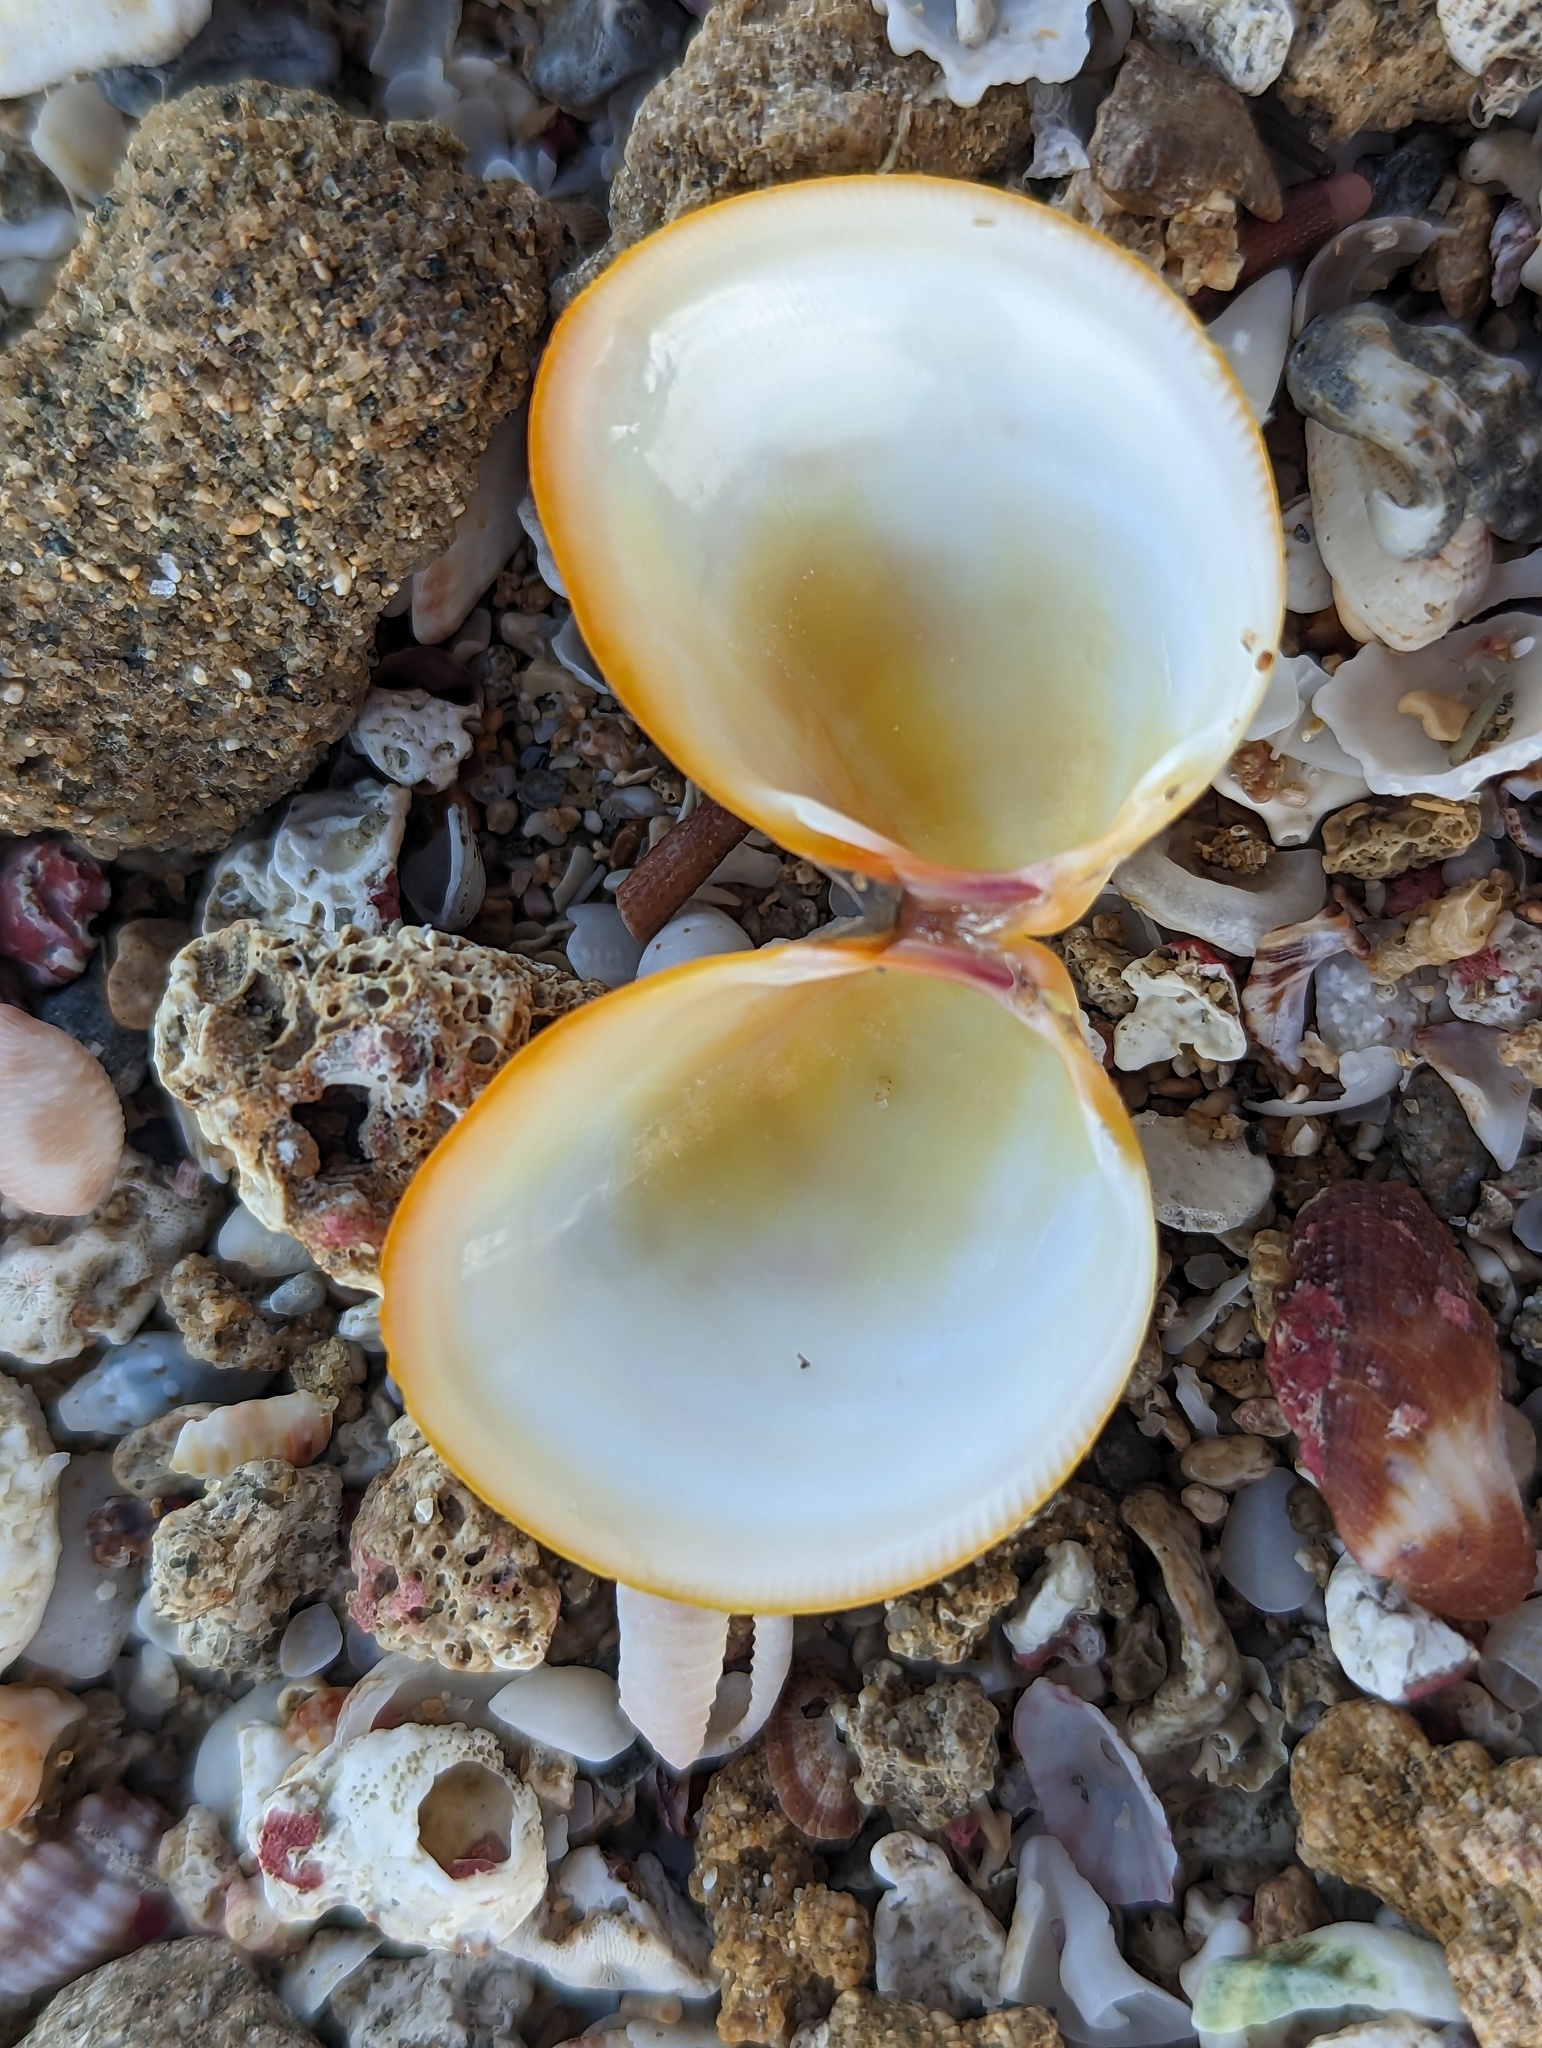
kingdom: Animalia
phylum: Mollusca
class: Bivalvia
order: Cardiida
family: Cardiidae
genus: Laevicardium
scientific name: Laevicardium serratum
